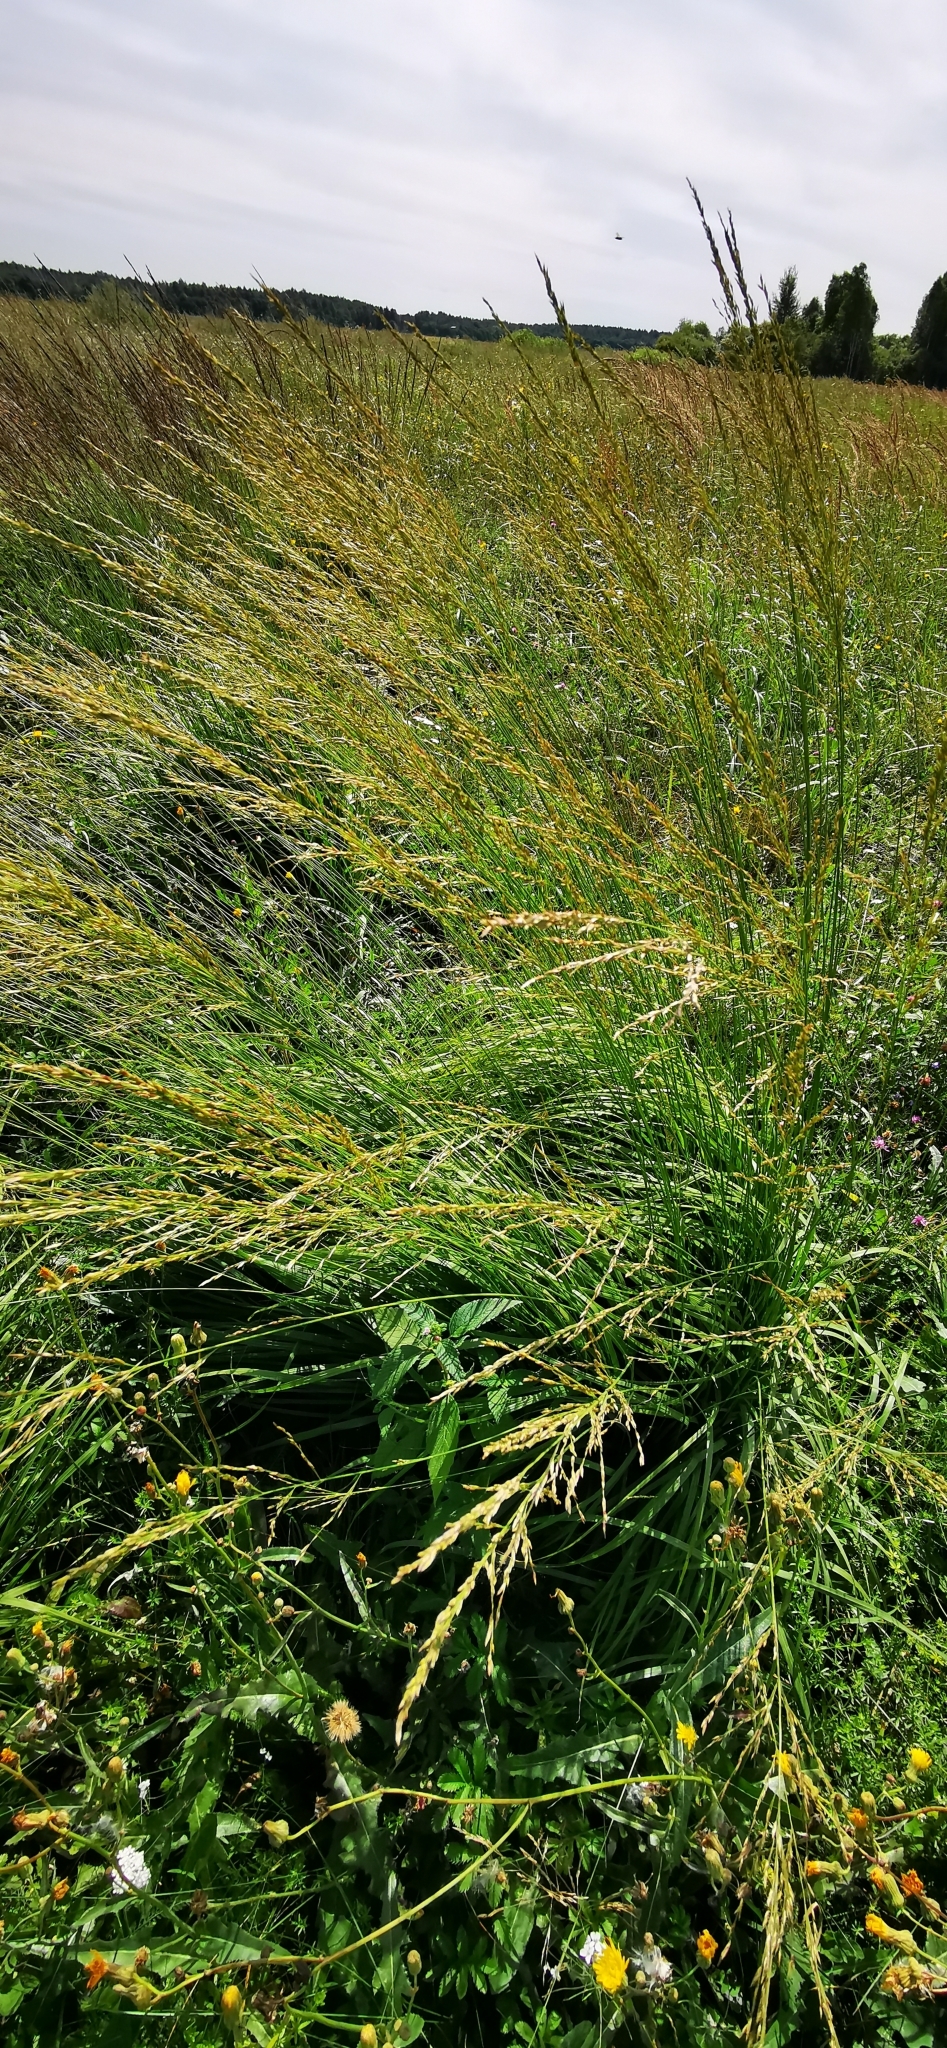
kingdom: Plantae
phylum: Tracheophyta
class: Liliopsida
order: Poales
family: Poaceae
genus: Molinia
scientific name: Molinia caerulea
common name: Purple moor-grass
